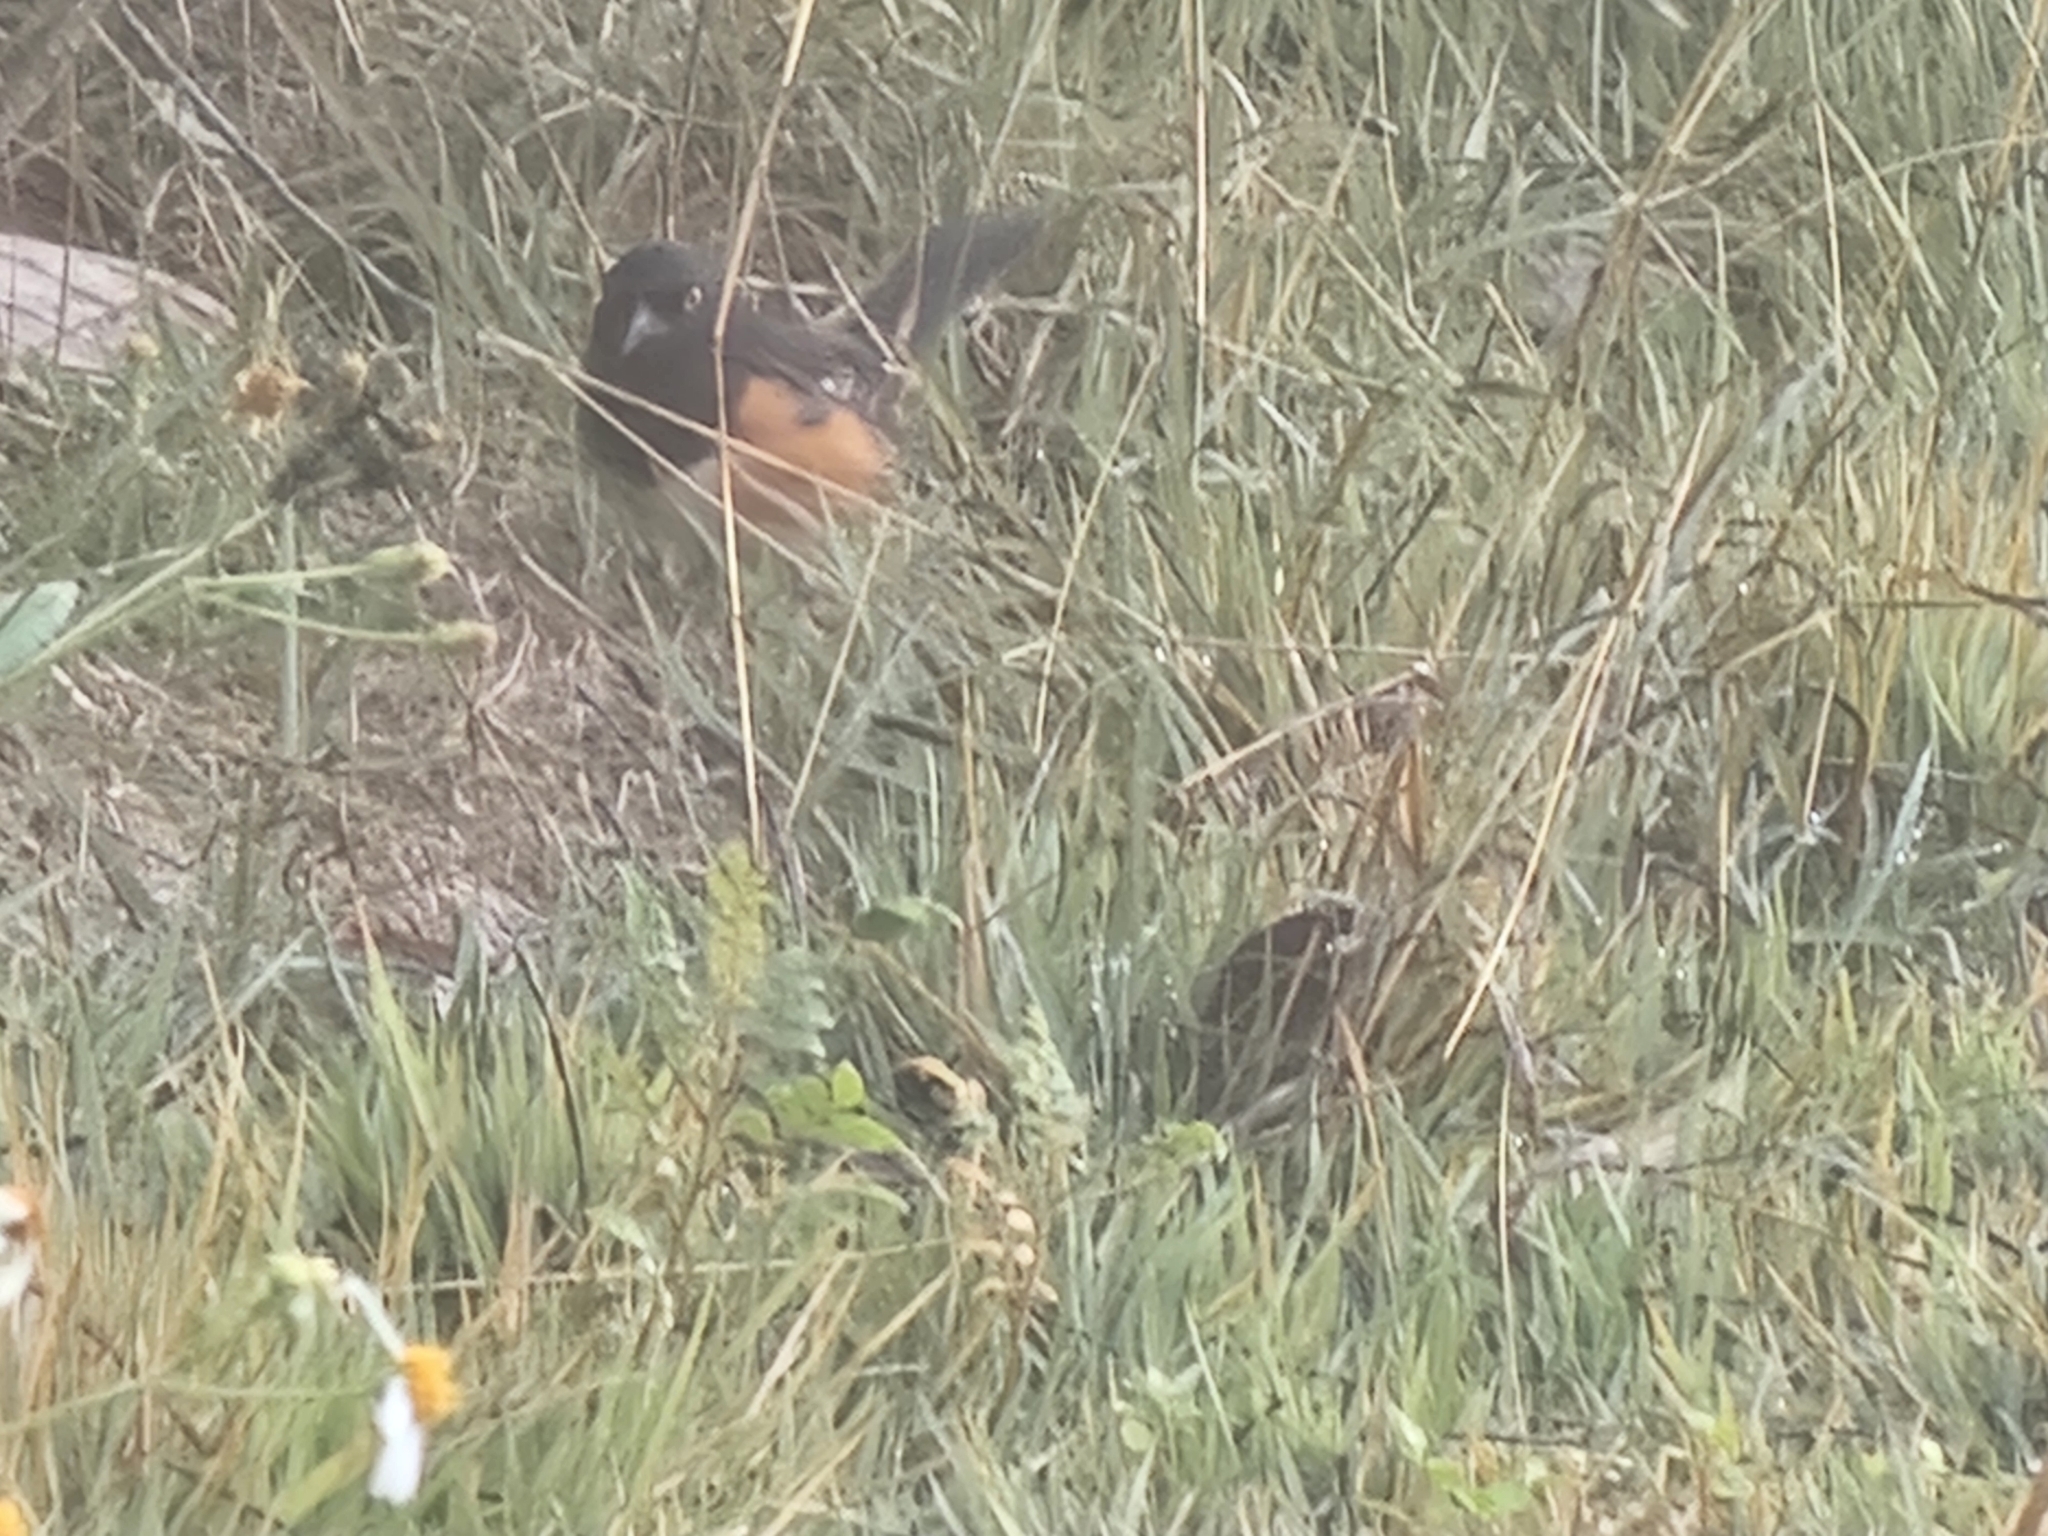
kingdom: Animalia
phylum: Chordata
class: Aves
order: Passeriformes
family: Passerellidae
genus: Pipilo
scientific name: Pipilo erythrophthalmus
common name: Eastern towhee
